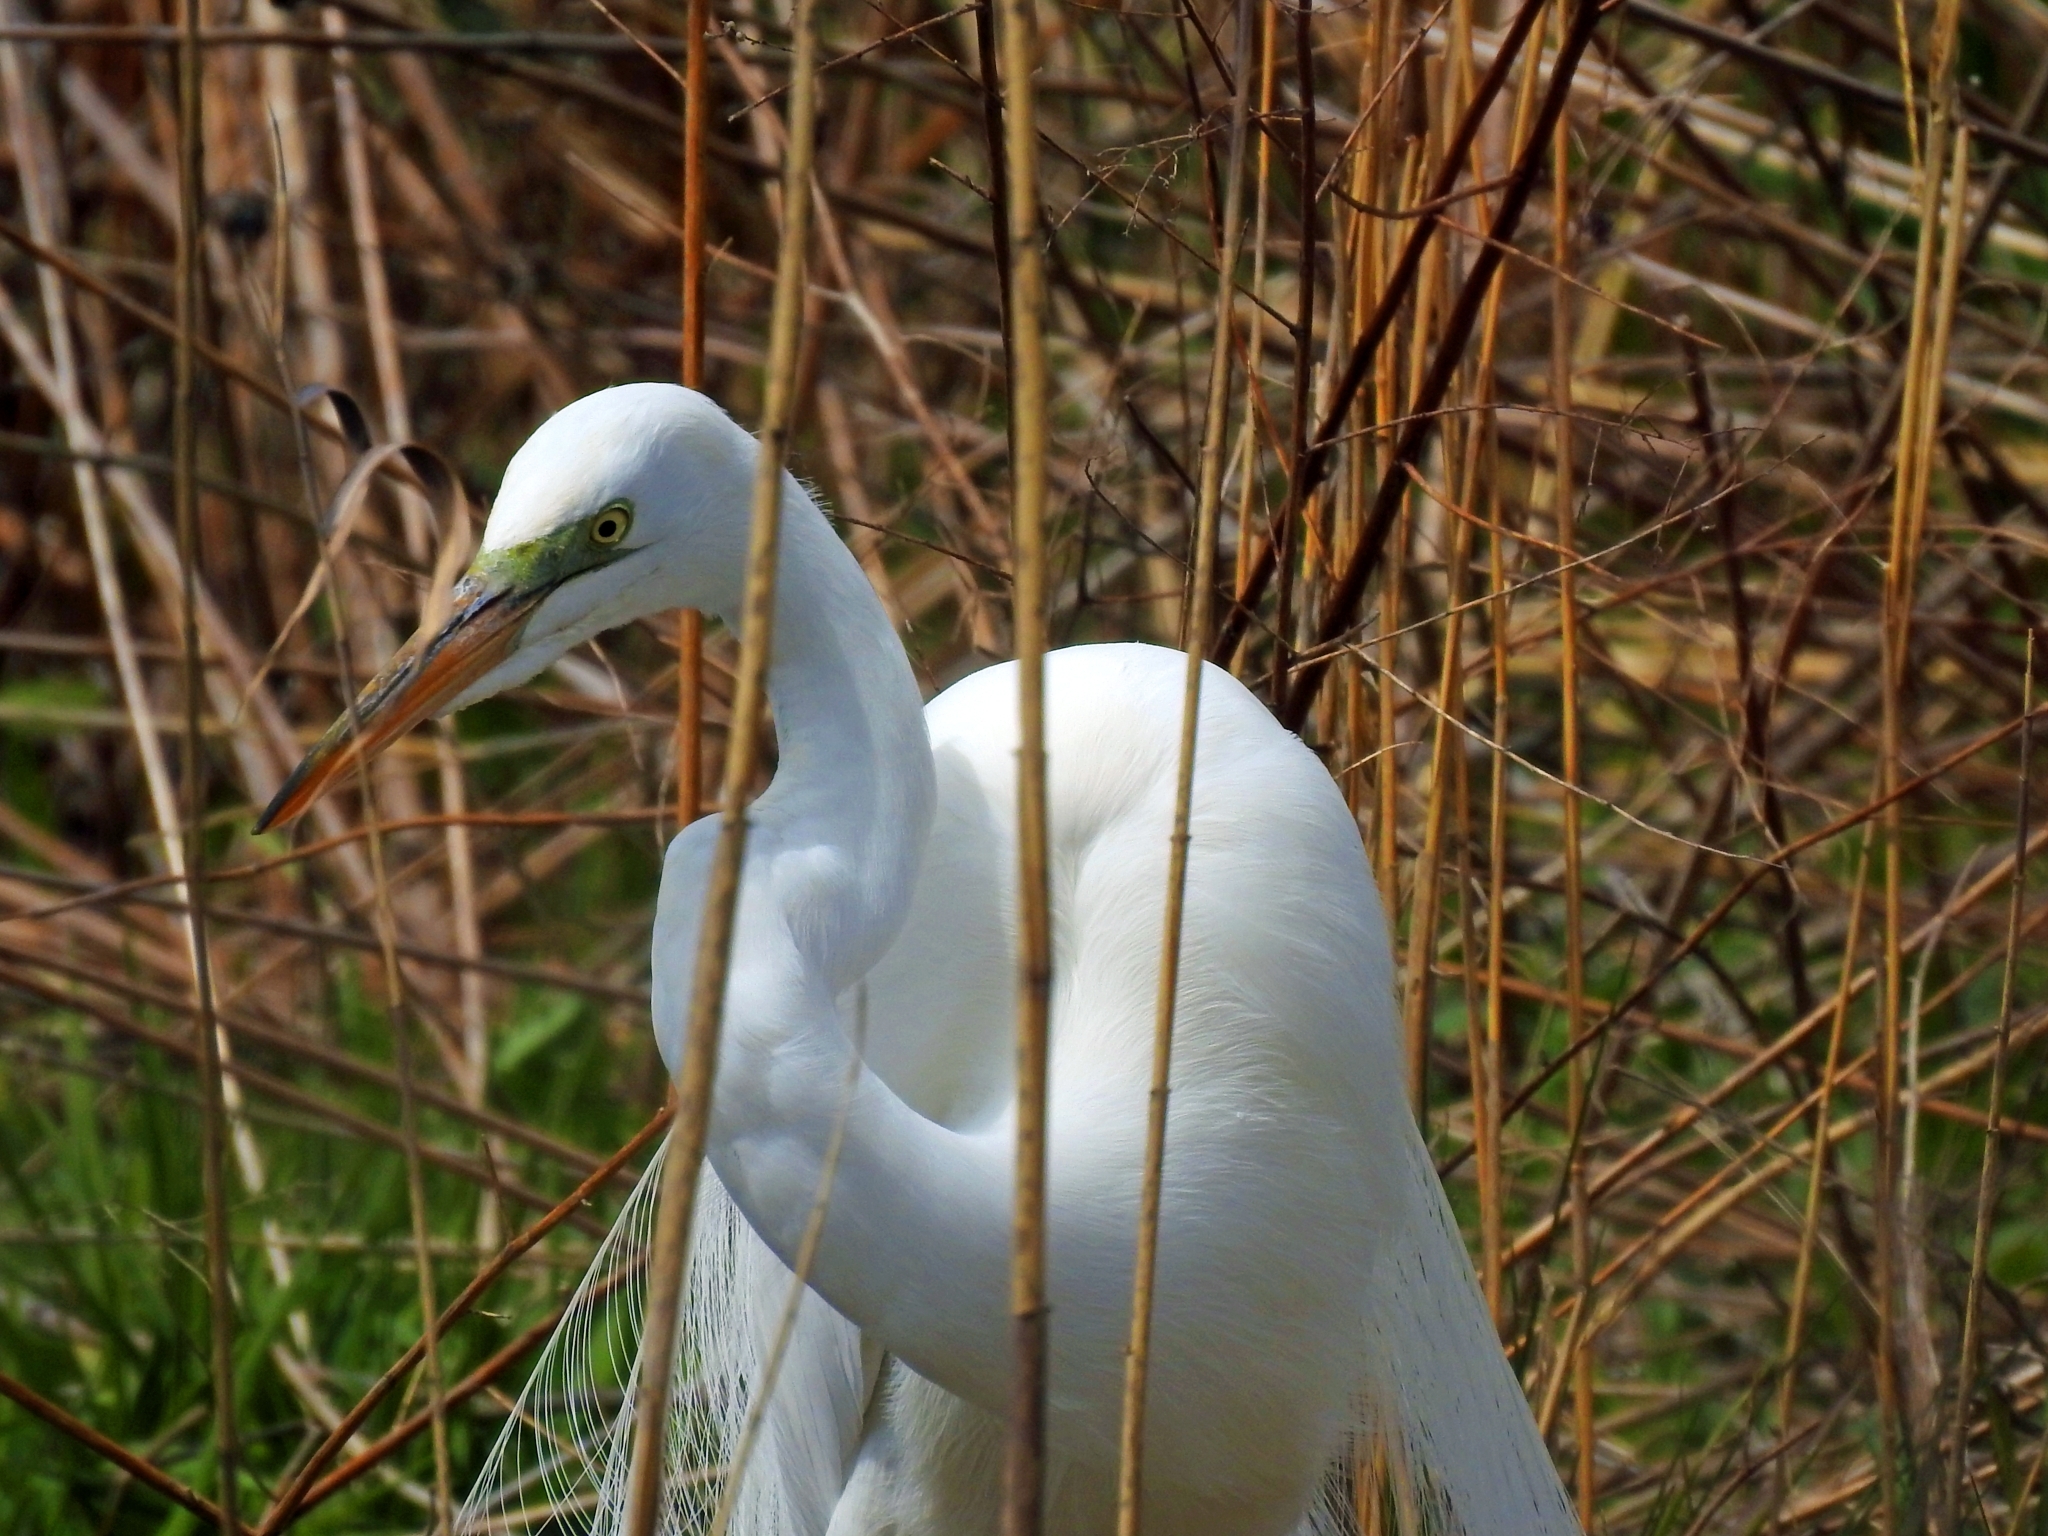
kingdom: Animalia
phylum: Chordata
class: Aves
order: Pelecaniformes
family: Ardeidae
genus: Ardea
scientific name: Ardea alba
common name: Great egret
